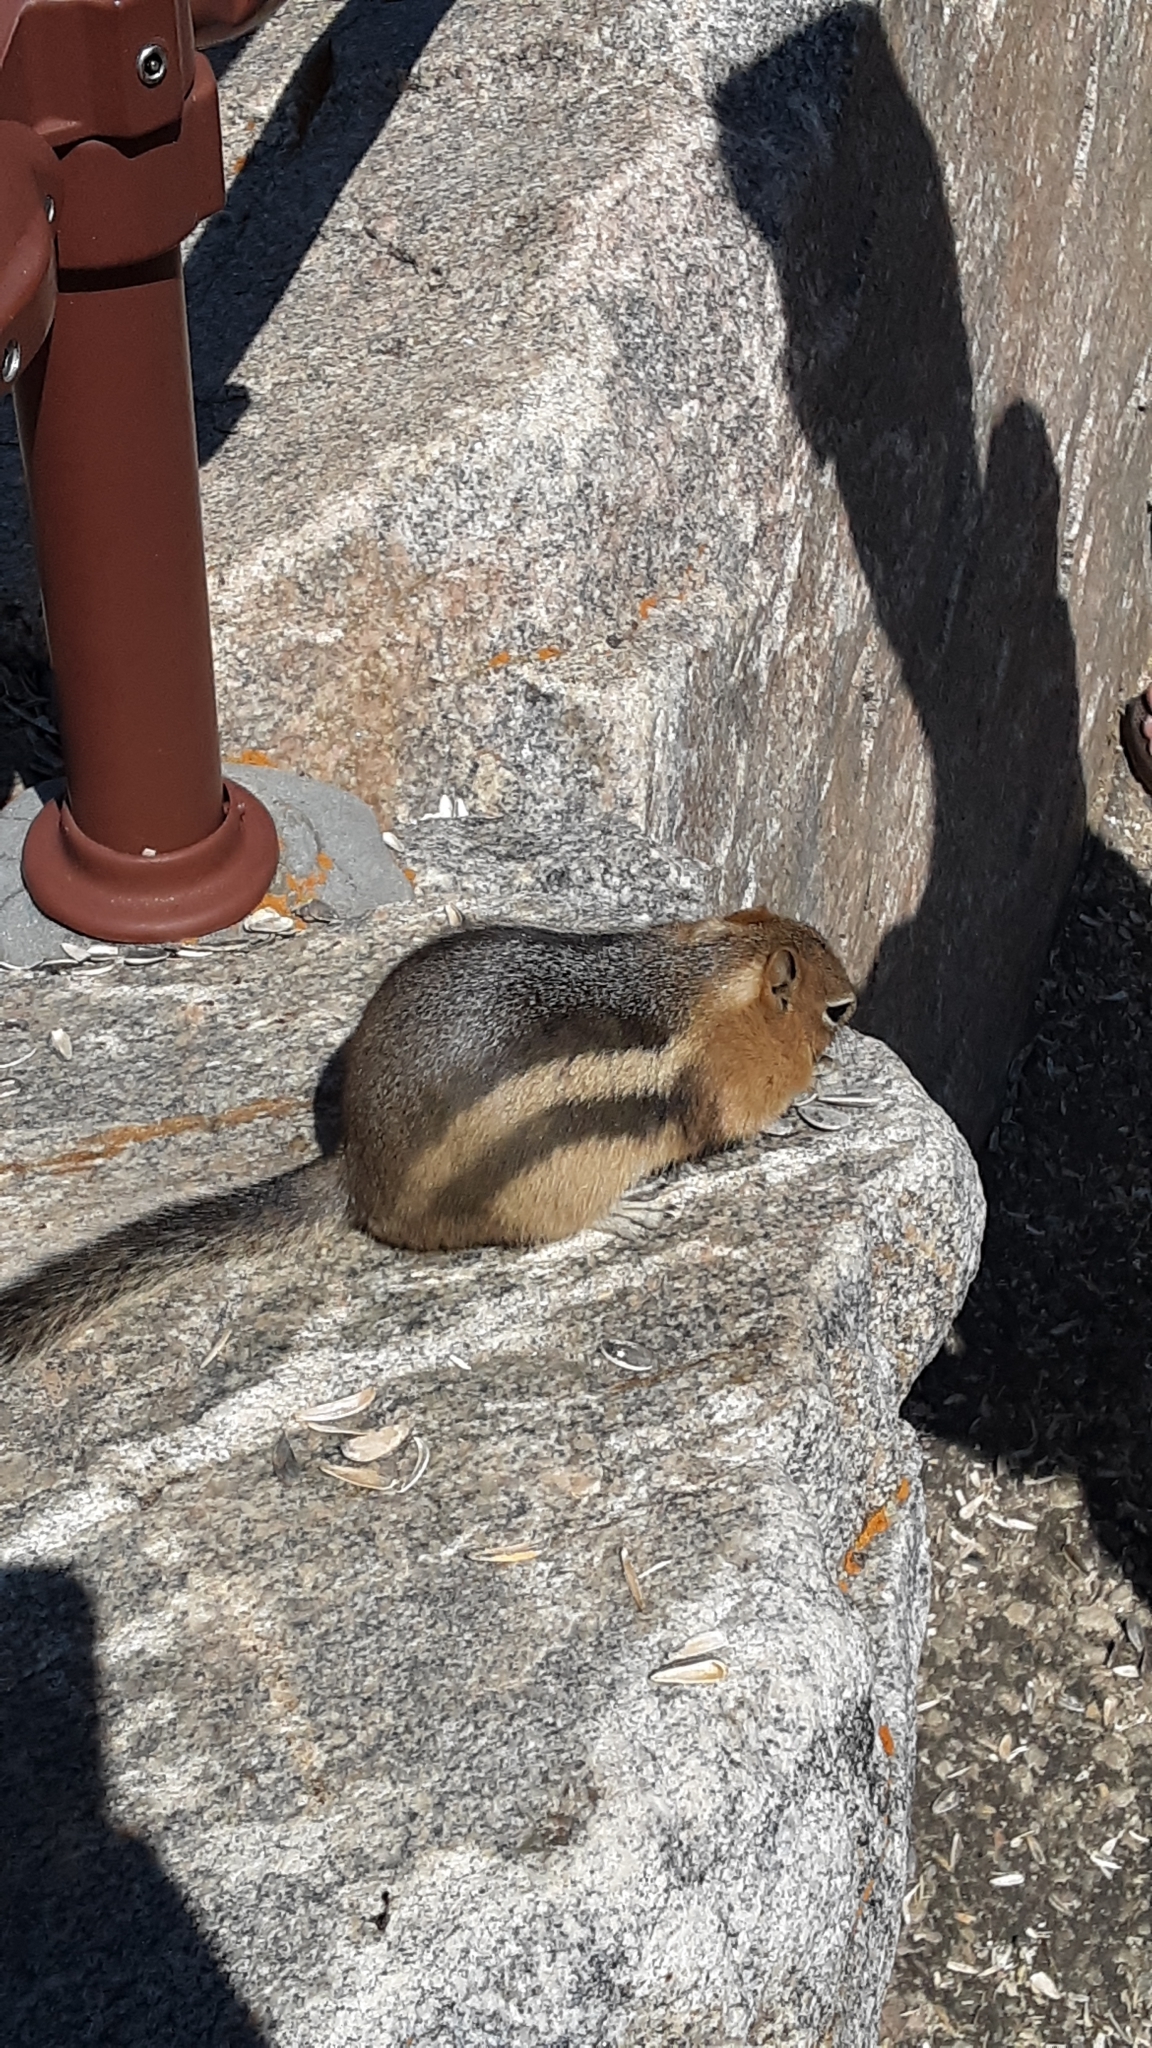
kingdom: Animalia
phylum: Chordata
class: Mammalia
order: Rodentia
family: Sciuridae
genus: Callospermophilus
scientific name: Callospermophilus lateralis
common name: Golden-mantled ground squirrel
